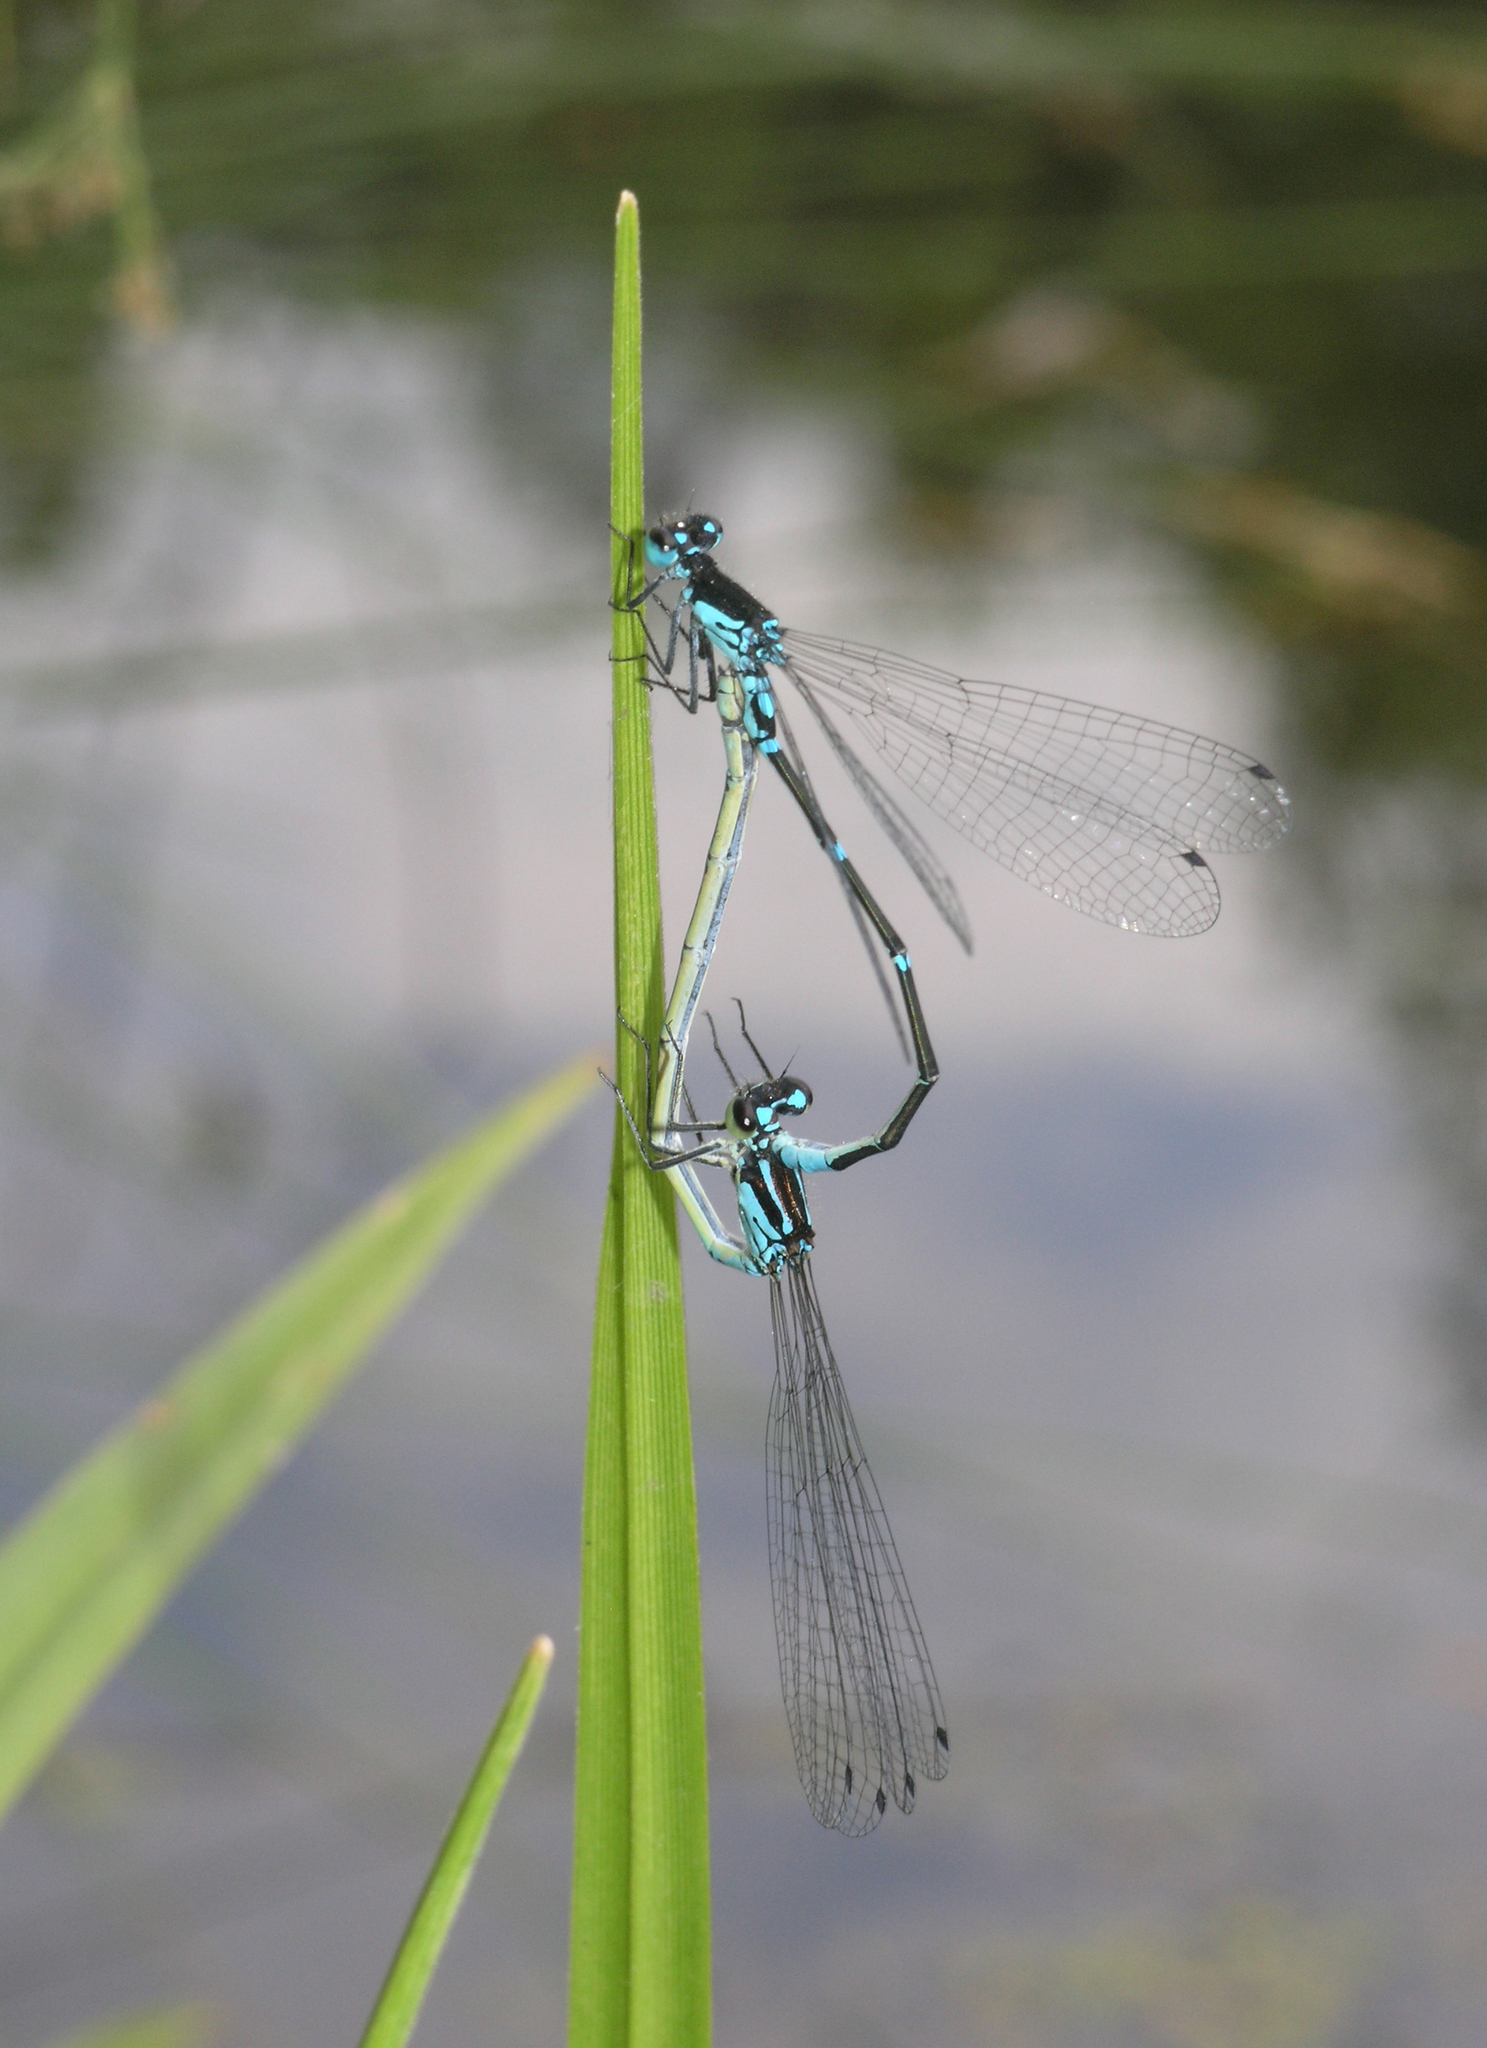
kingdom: Animalia
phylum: Arthropoda
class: Insecta
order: Odonata
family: Coenagrionidae
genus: Coenagrion
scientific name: Coenagrion pulchellum
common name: Variable bluet
